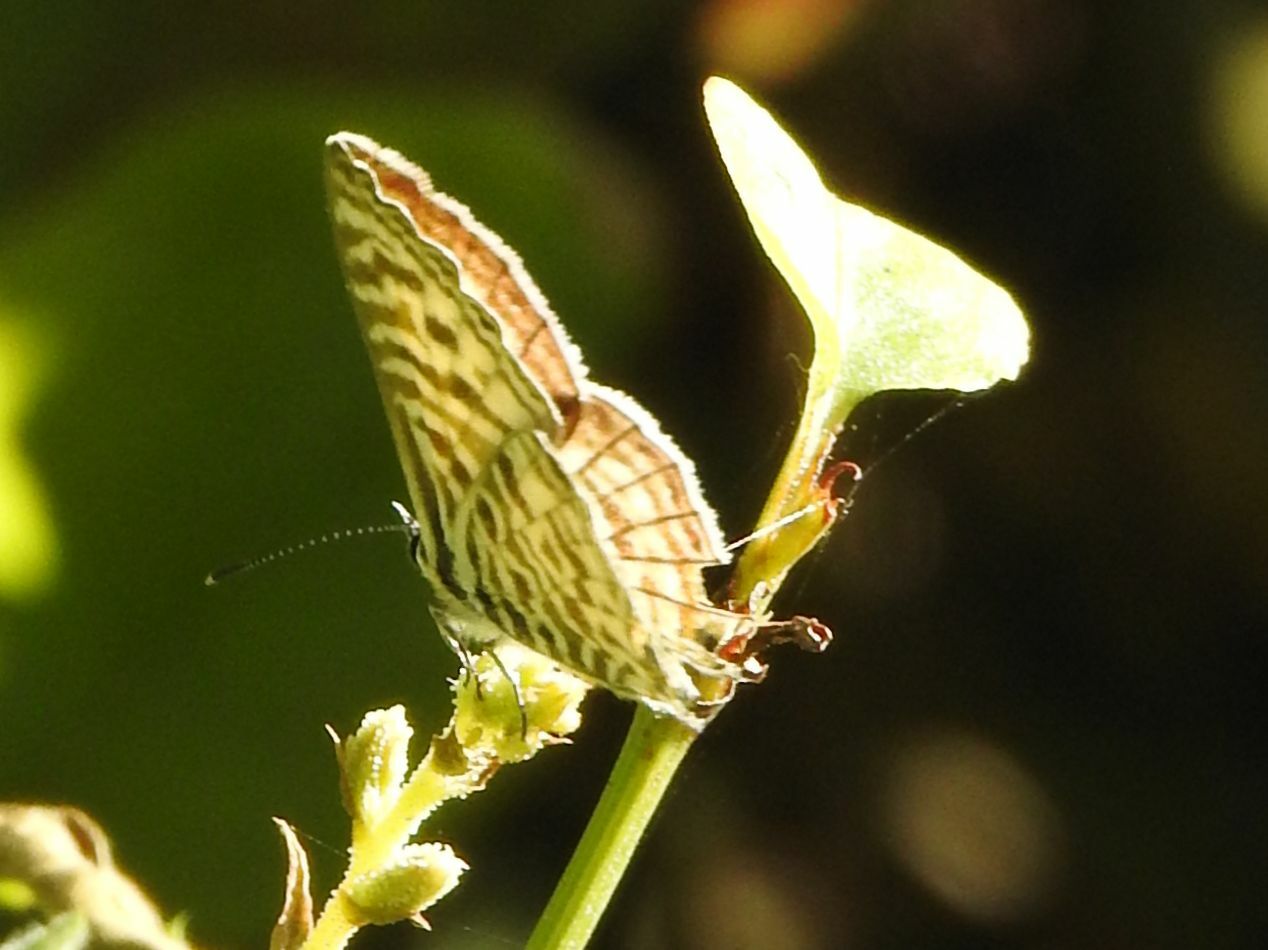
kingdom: Animalia
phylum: Arthropoda
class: Insecta
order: Lepidoptera
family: Lycaenidae
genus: Leptotes
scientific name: Leptotes
